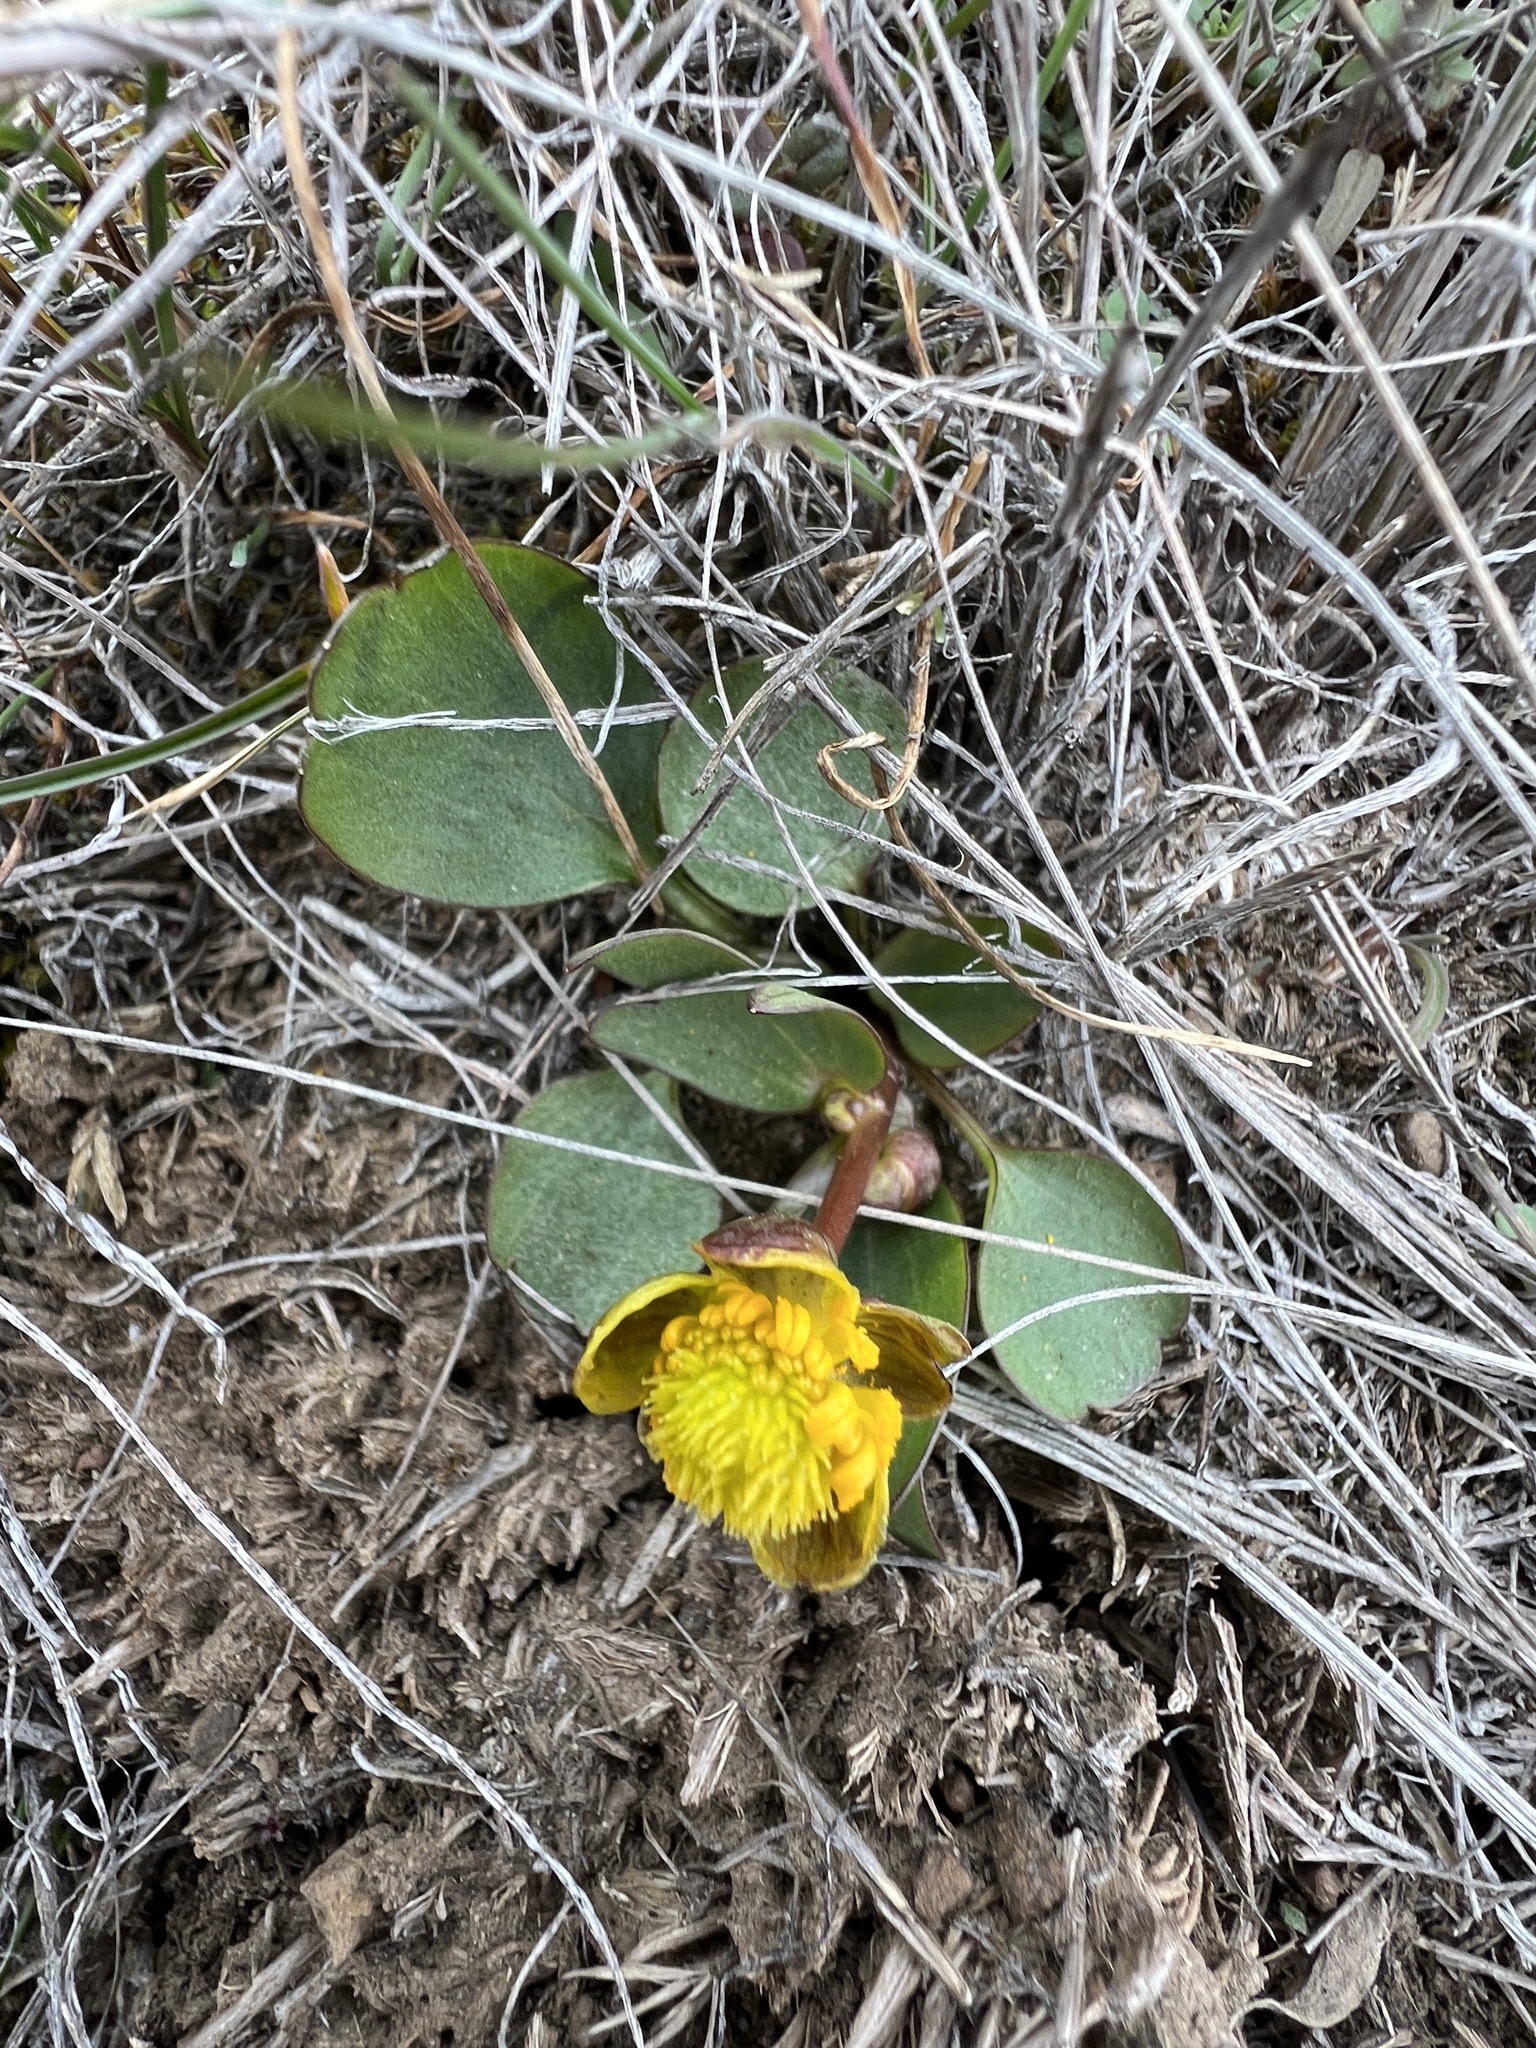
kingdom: Plantae
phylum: Tracheophyta
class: Magnoliopsida
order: Ranunculales
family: Ranunculaceae
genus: Ranunculus
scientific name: Ranunculus glaberrimus
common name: Sagebrush buttercup
